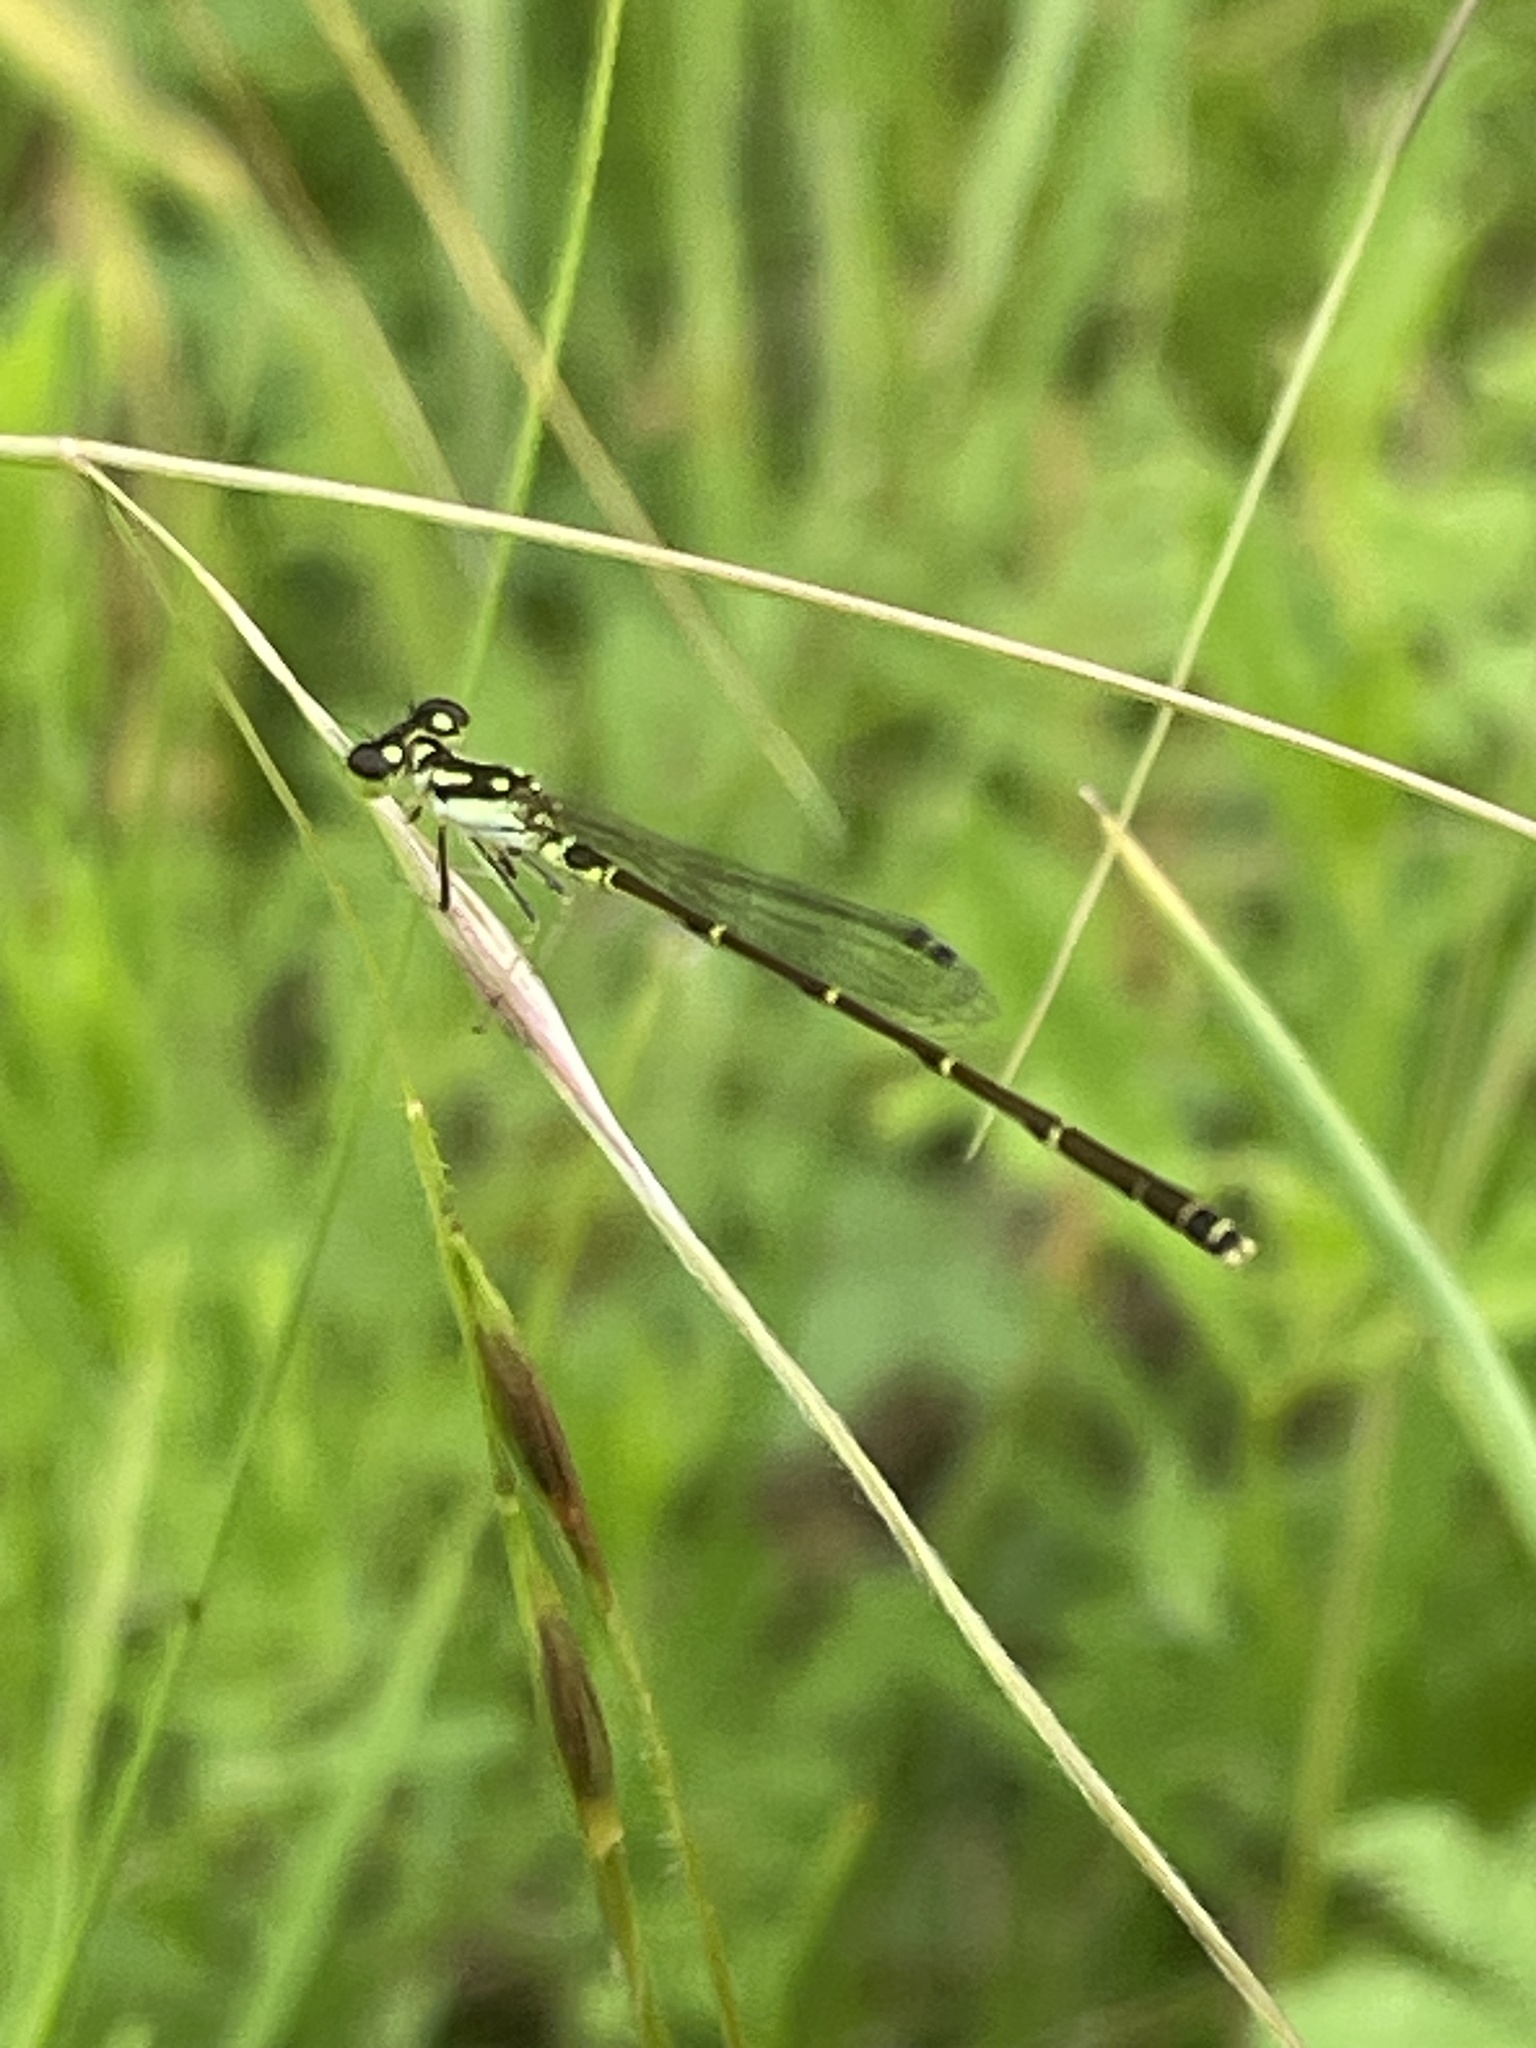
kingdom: Animalia
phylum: Arthropoda
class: Insecta
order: Odonata
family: Coenagrionidae
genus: Ischnura
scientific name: Ischnura posita
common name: Fragile forktail
